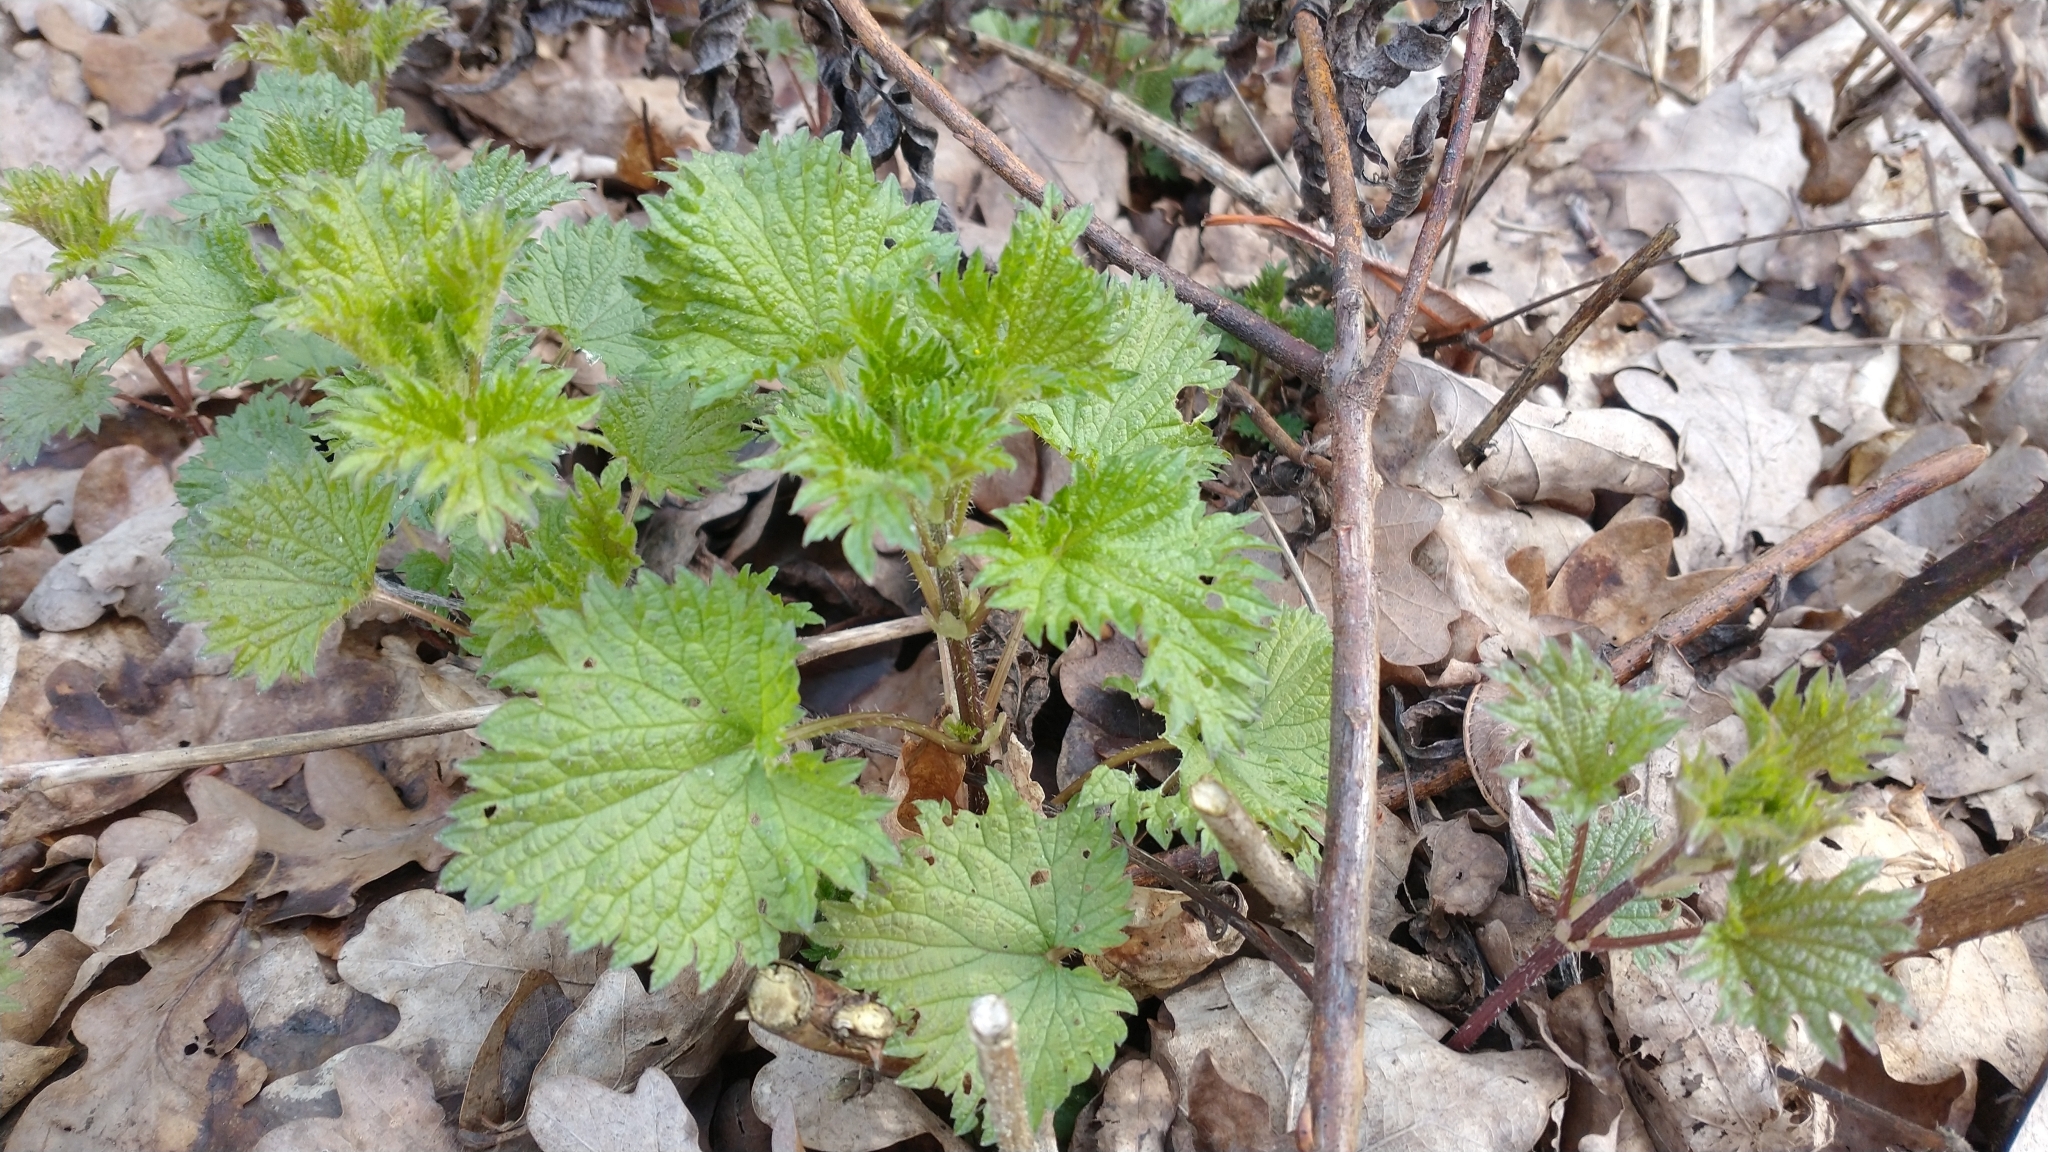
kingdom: Plantae
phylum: Tracheophyta
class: Magnoliopsida
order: Rosales
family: Urticaceae
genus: Urtica
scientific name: Urtica dioica
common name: Common nettle
